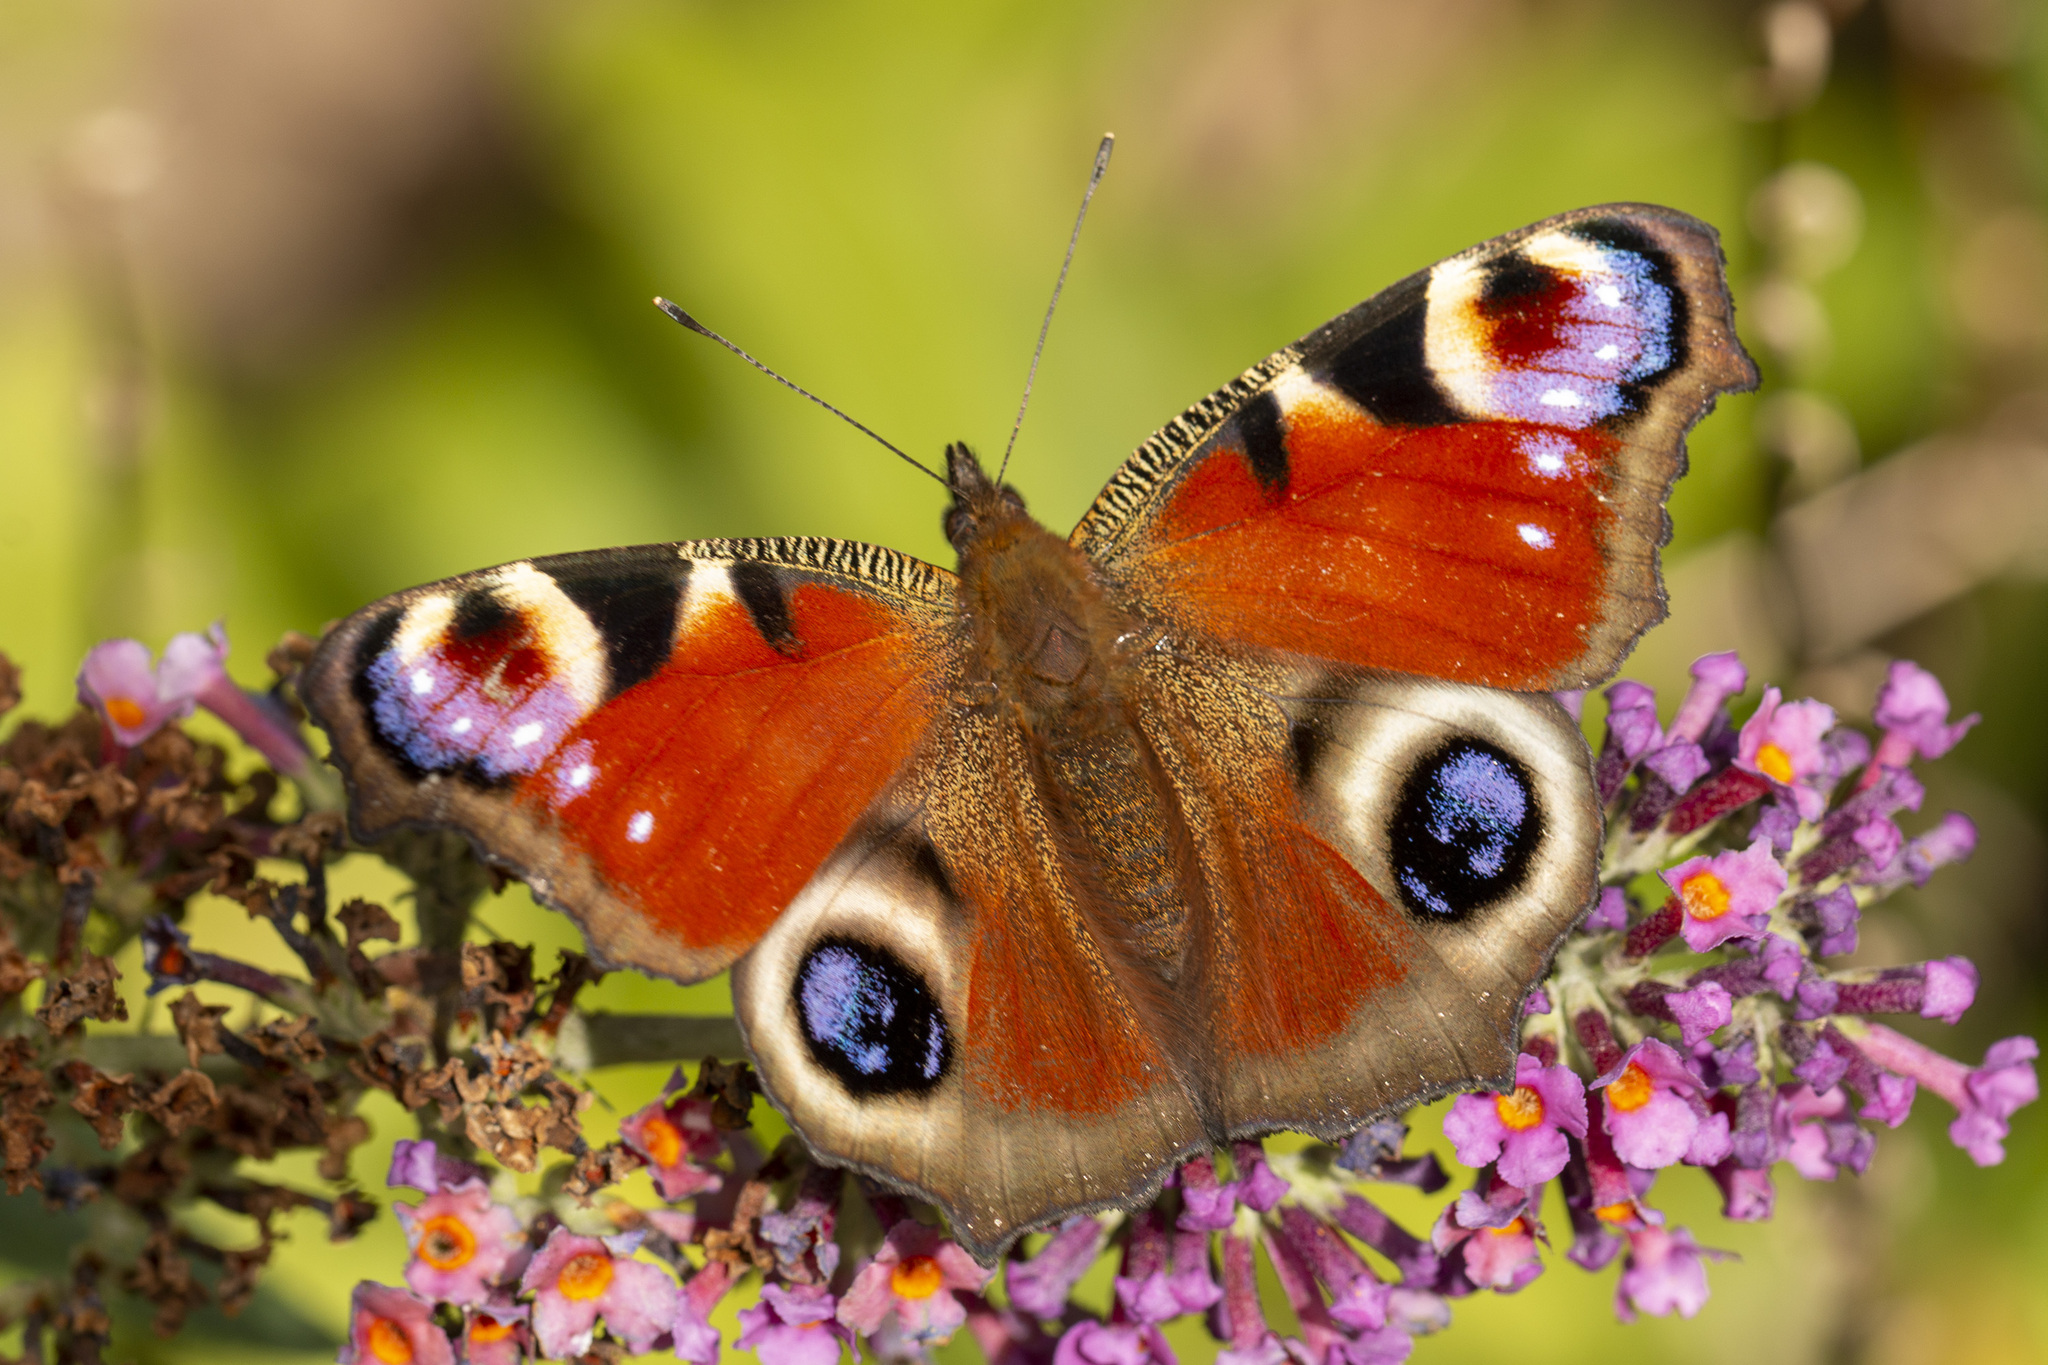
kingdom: Animalia
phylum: Arthropoda
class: Insecta
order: Lepidoptera
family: Nymphalidae
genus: Aglais
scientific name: Aglais io
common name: Peacock
